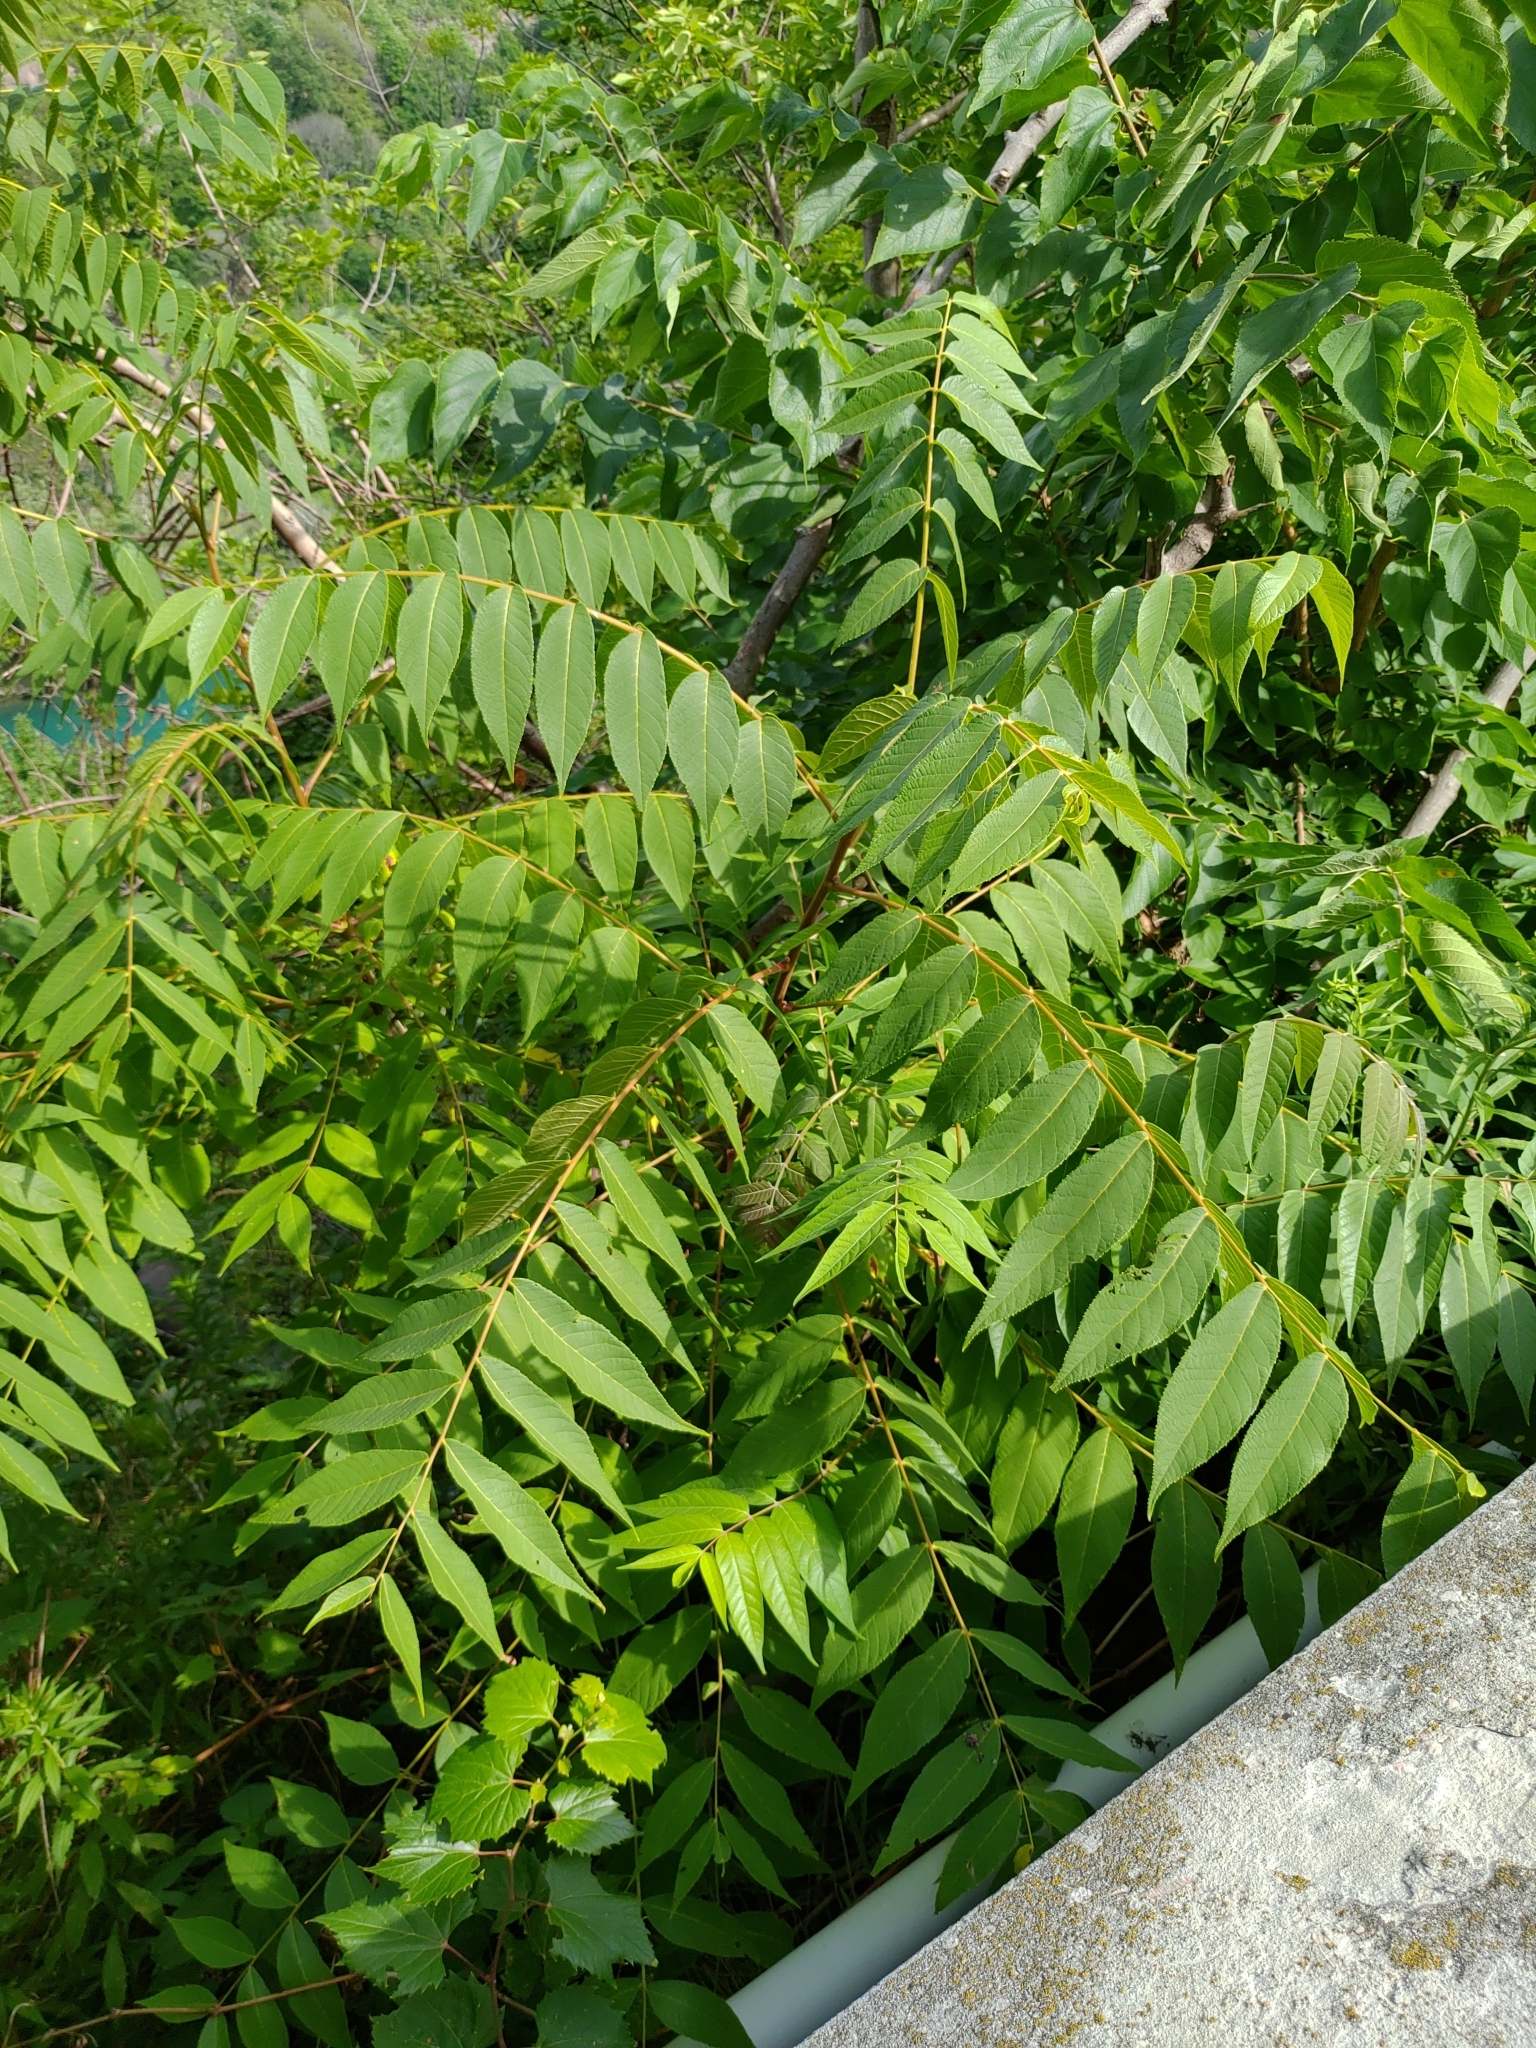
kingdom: Plantae
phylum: Tracheophyta
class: Magnoliopsida
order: Fagales
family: Juglandaceae
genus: Juglans
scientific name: Juglans nigra
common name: Black walnut
